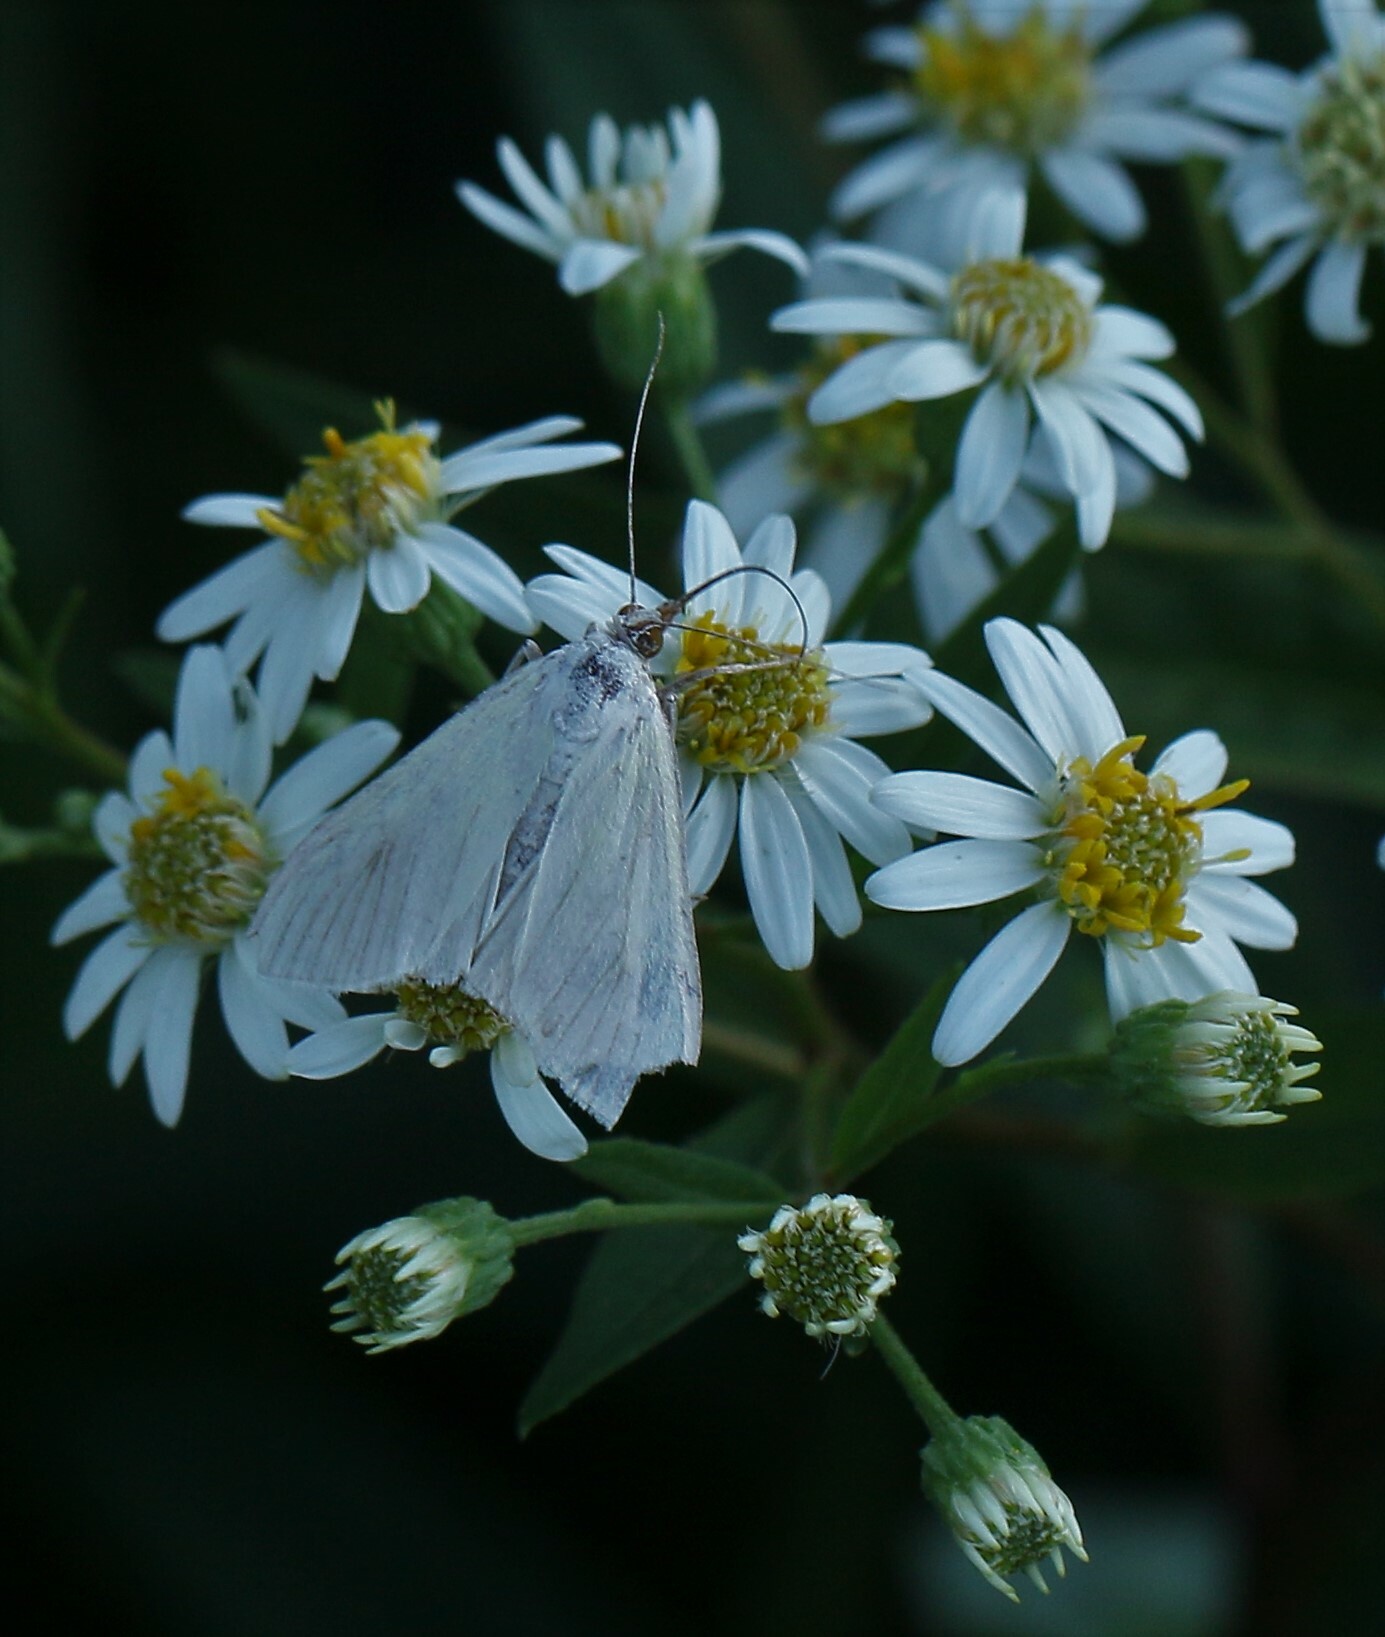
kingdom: Animalia
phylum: Arthropoda
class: Insecta
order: Lepidoptera
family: Crambidae
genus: Sitochroa
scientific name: Sitochroa palealis
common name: Greenish-yellow sitochroa moth
